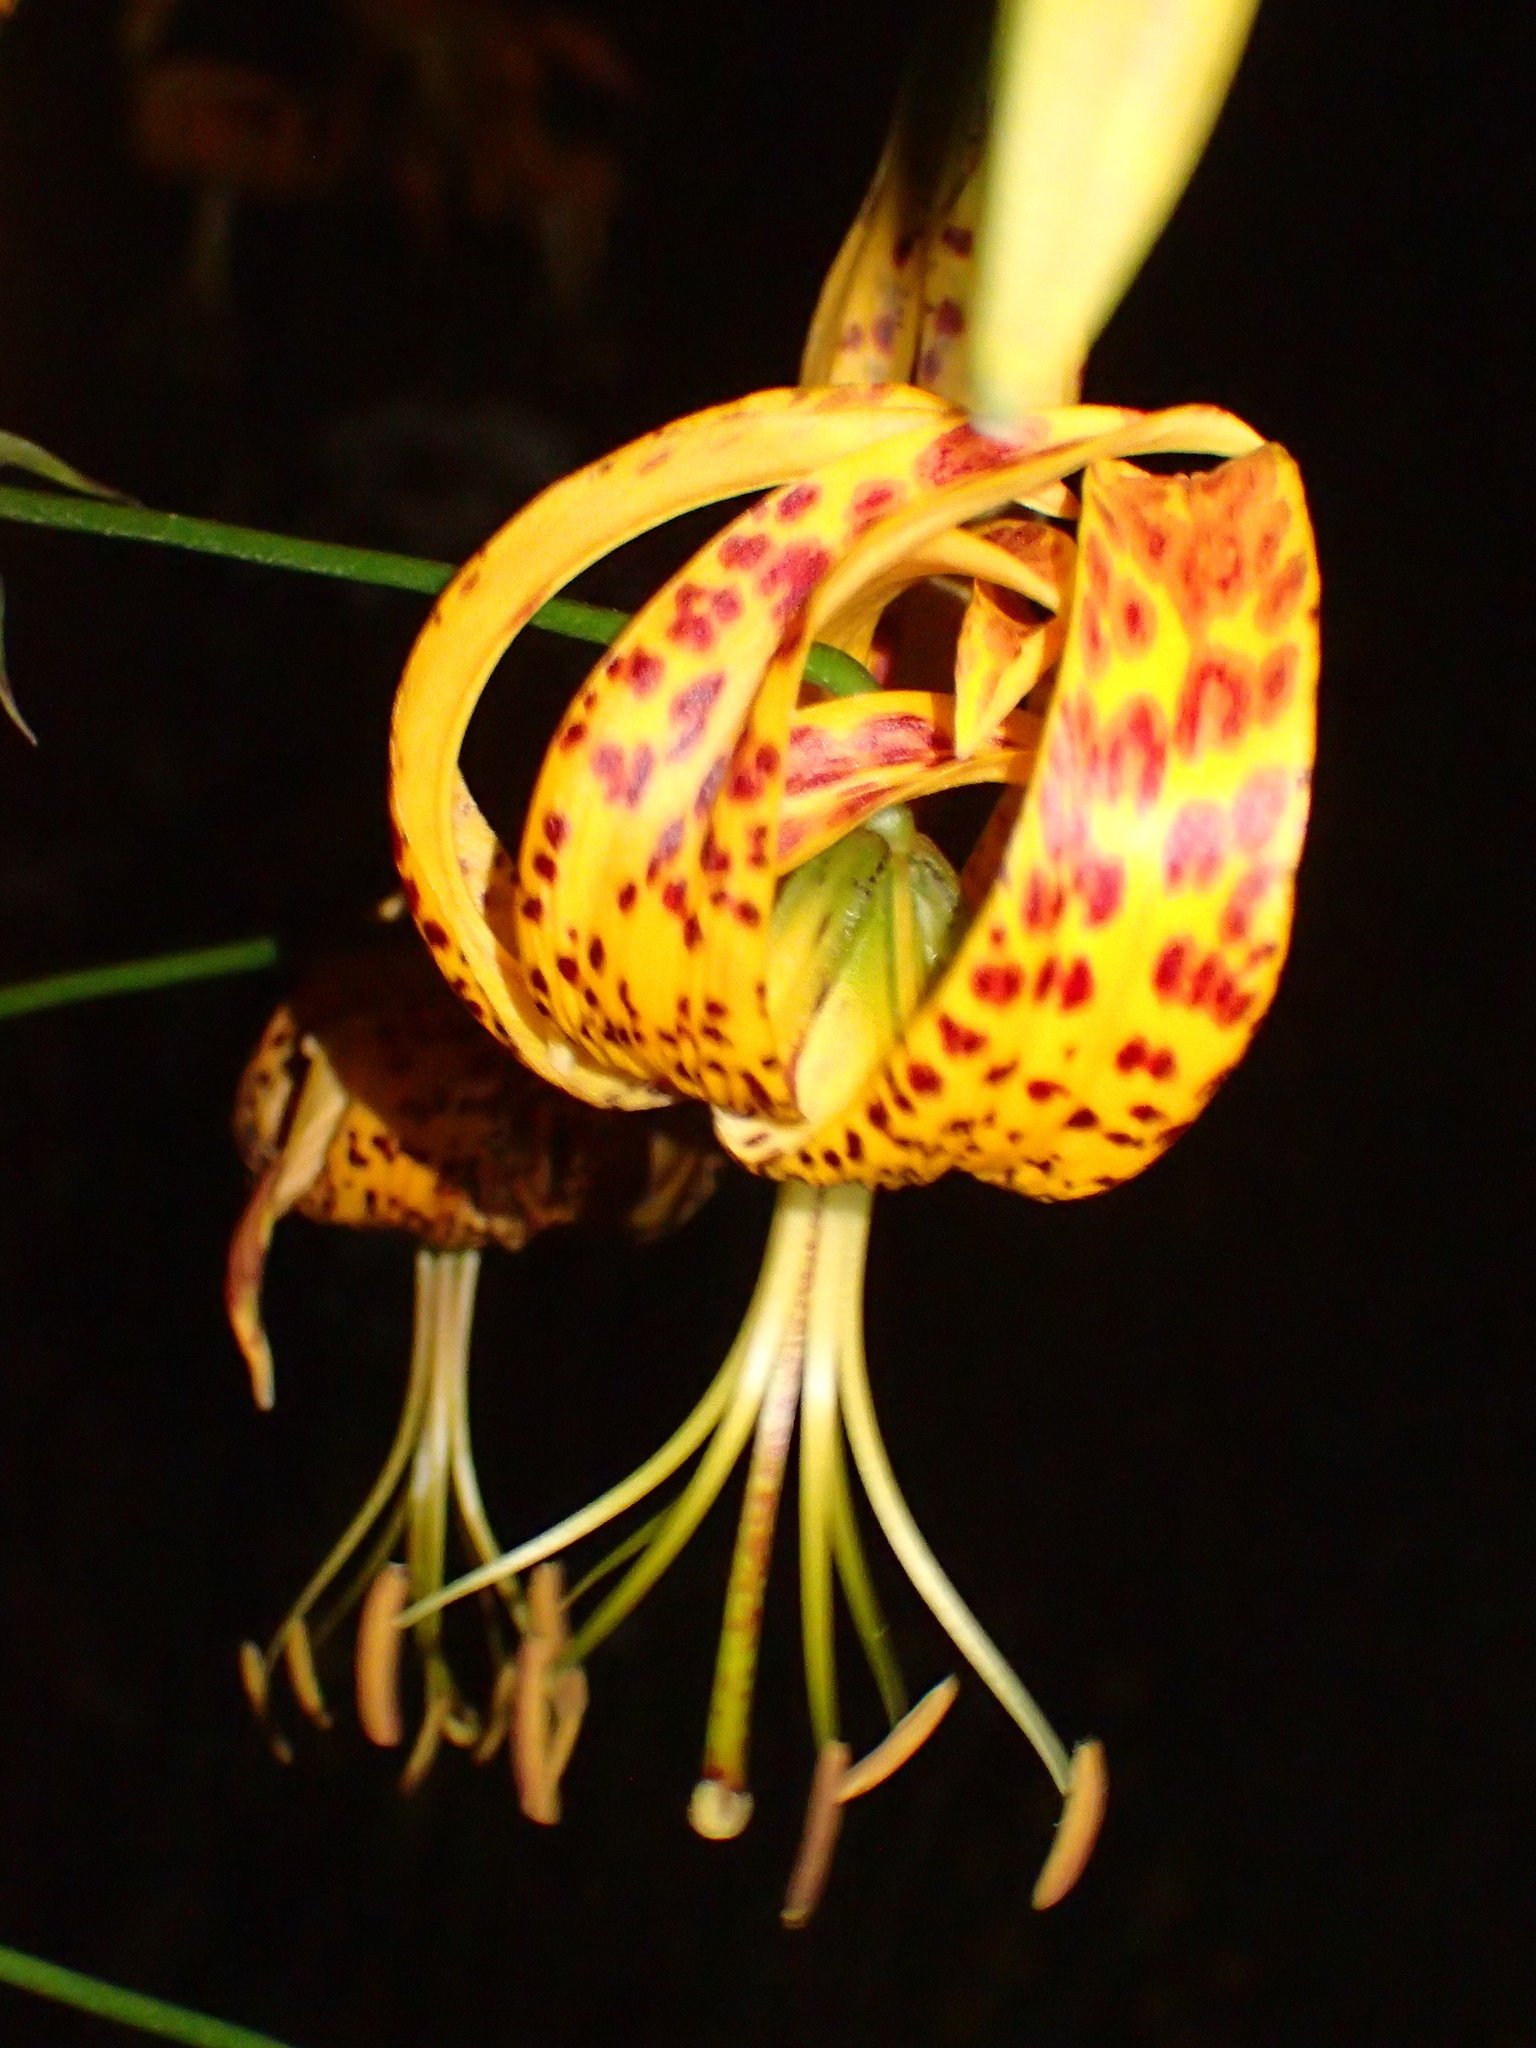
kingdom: Plantae
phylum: Tracheophyta
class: Liliopsida
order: Liliales
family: Liliaceae
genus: Lilium
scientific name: Lilium humboldtii
